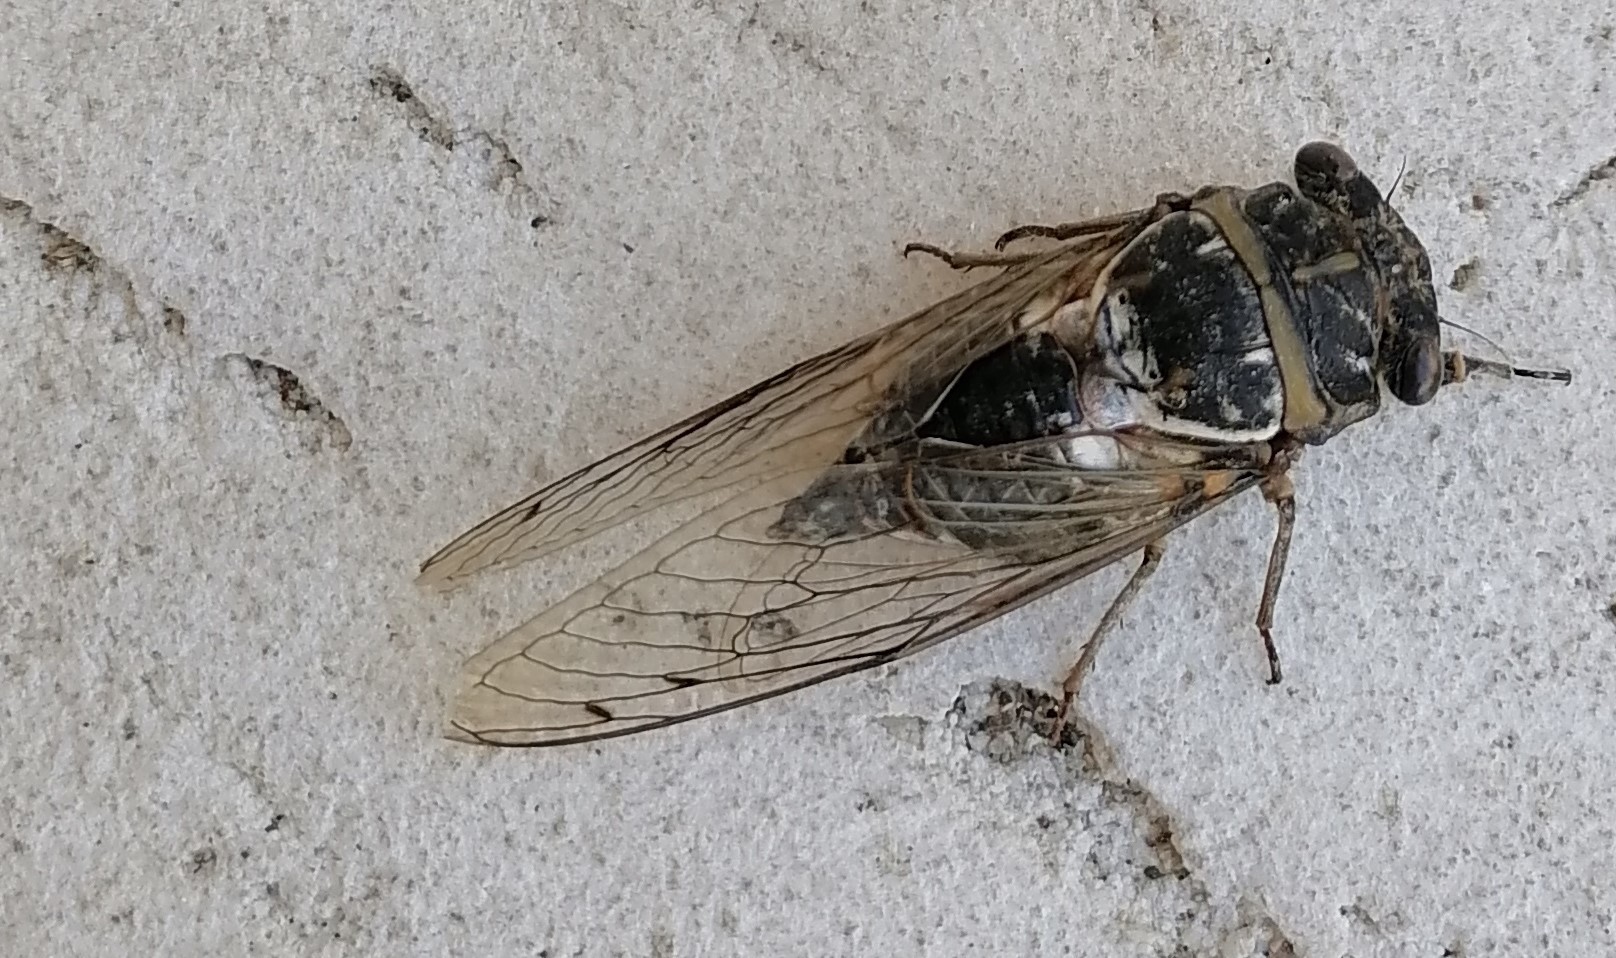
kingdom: Animalia
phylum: Arthropoda
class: Insecta
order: Hemiptera
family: Cicadidae
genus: Lyristes
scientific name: Lyristes gemellus
